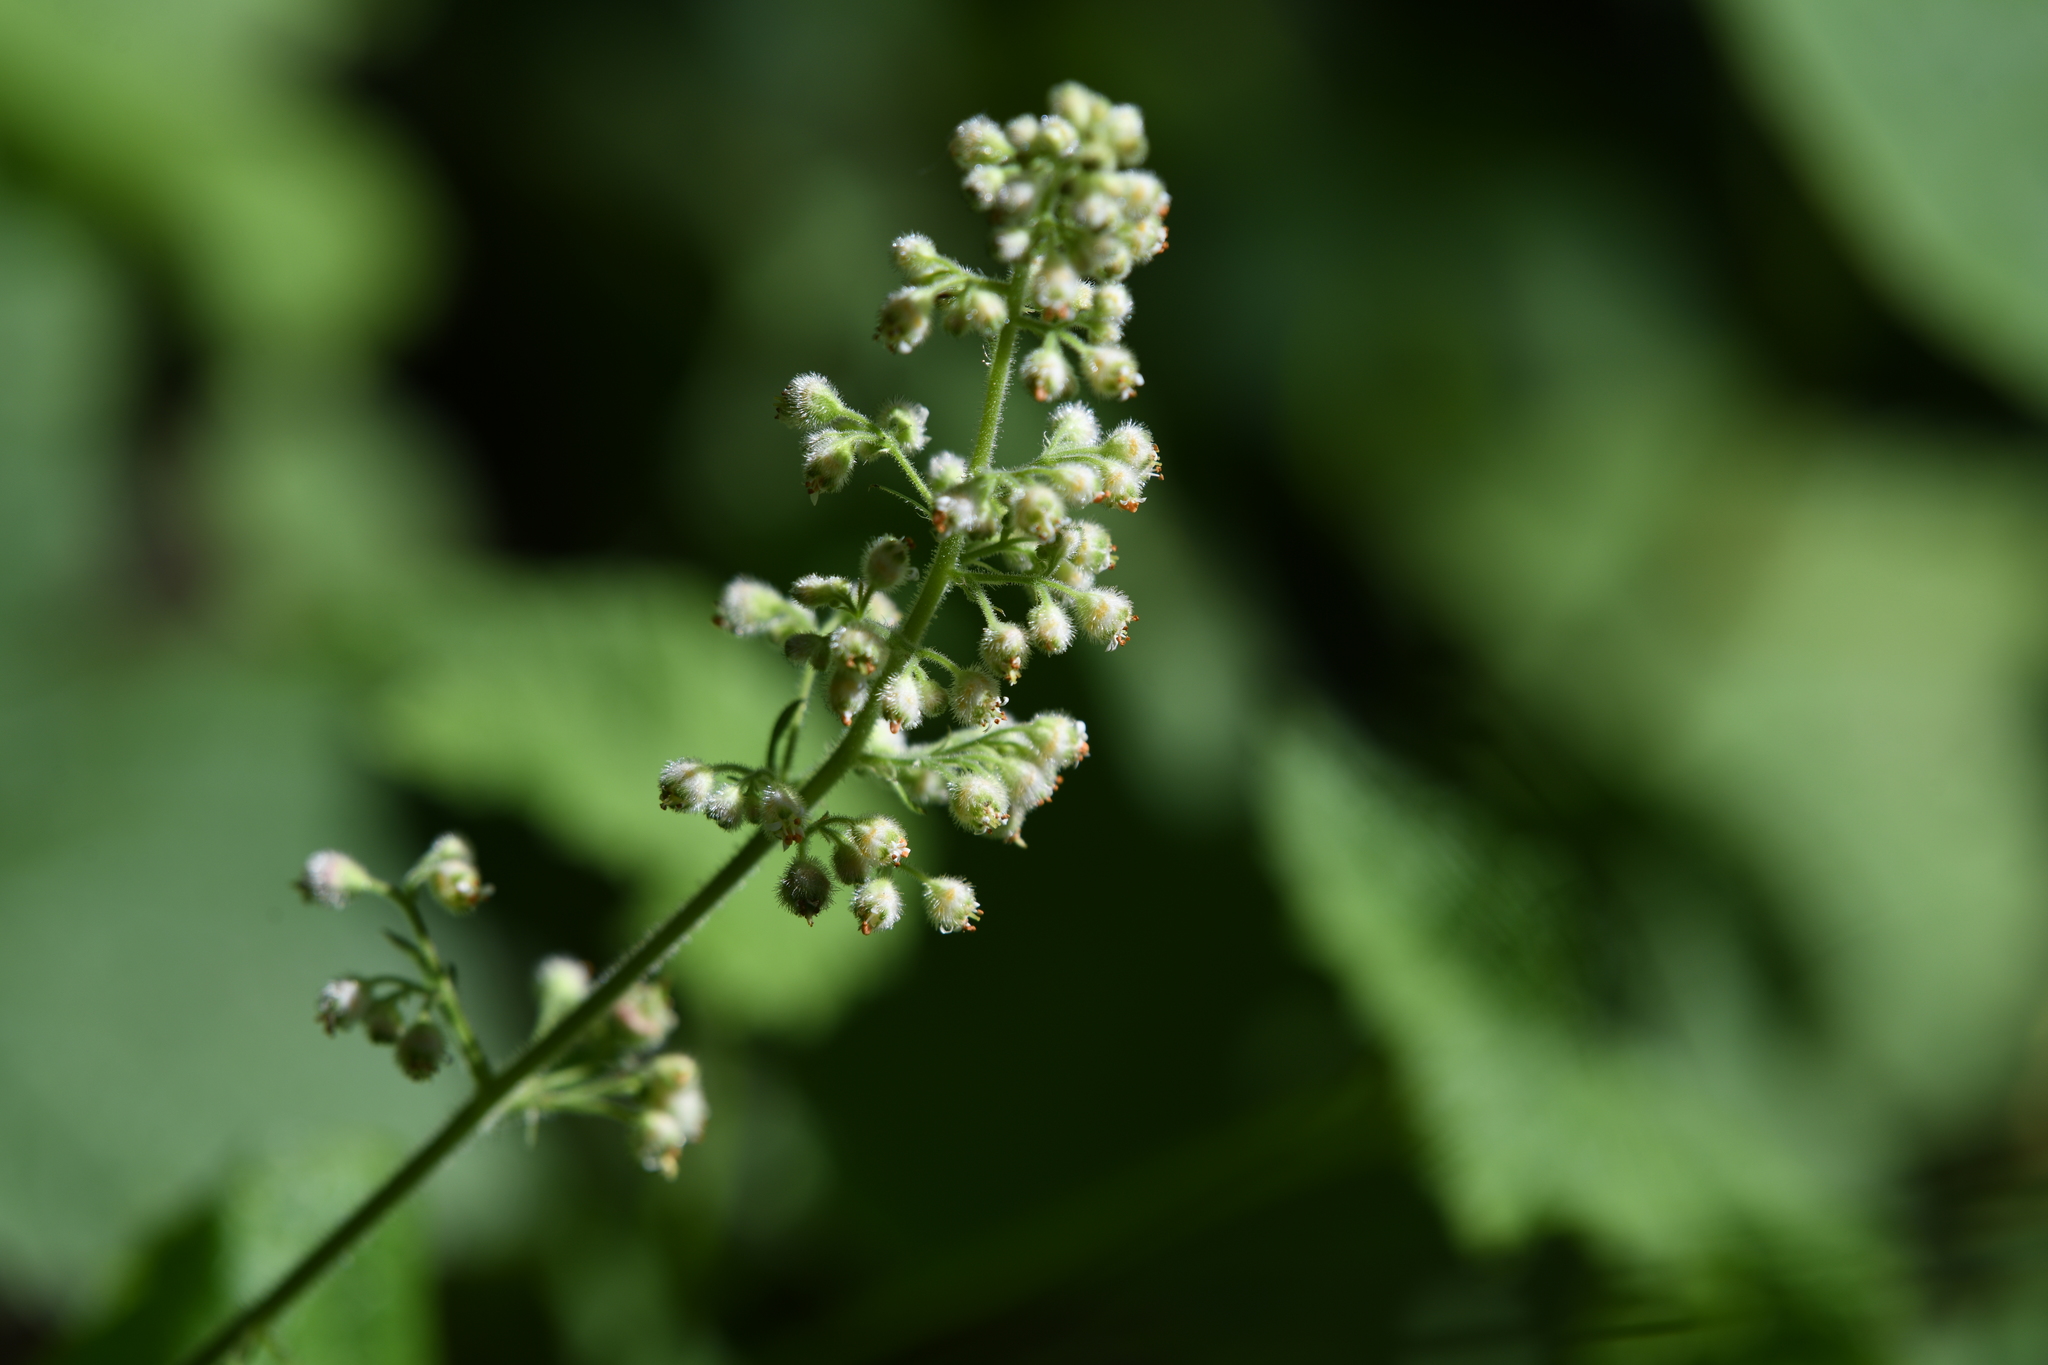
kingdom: Plantae
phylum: Tracheophyta
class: Magnoliopsida
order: Saxifragales
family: Saxifragaceae
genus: Heuchera
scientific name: Heuchera pilosissima
